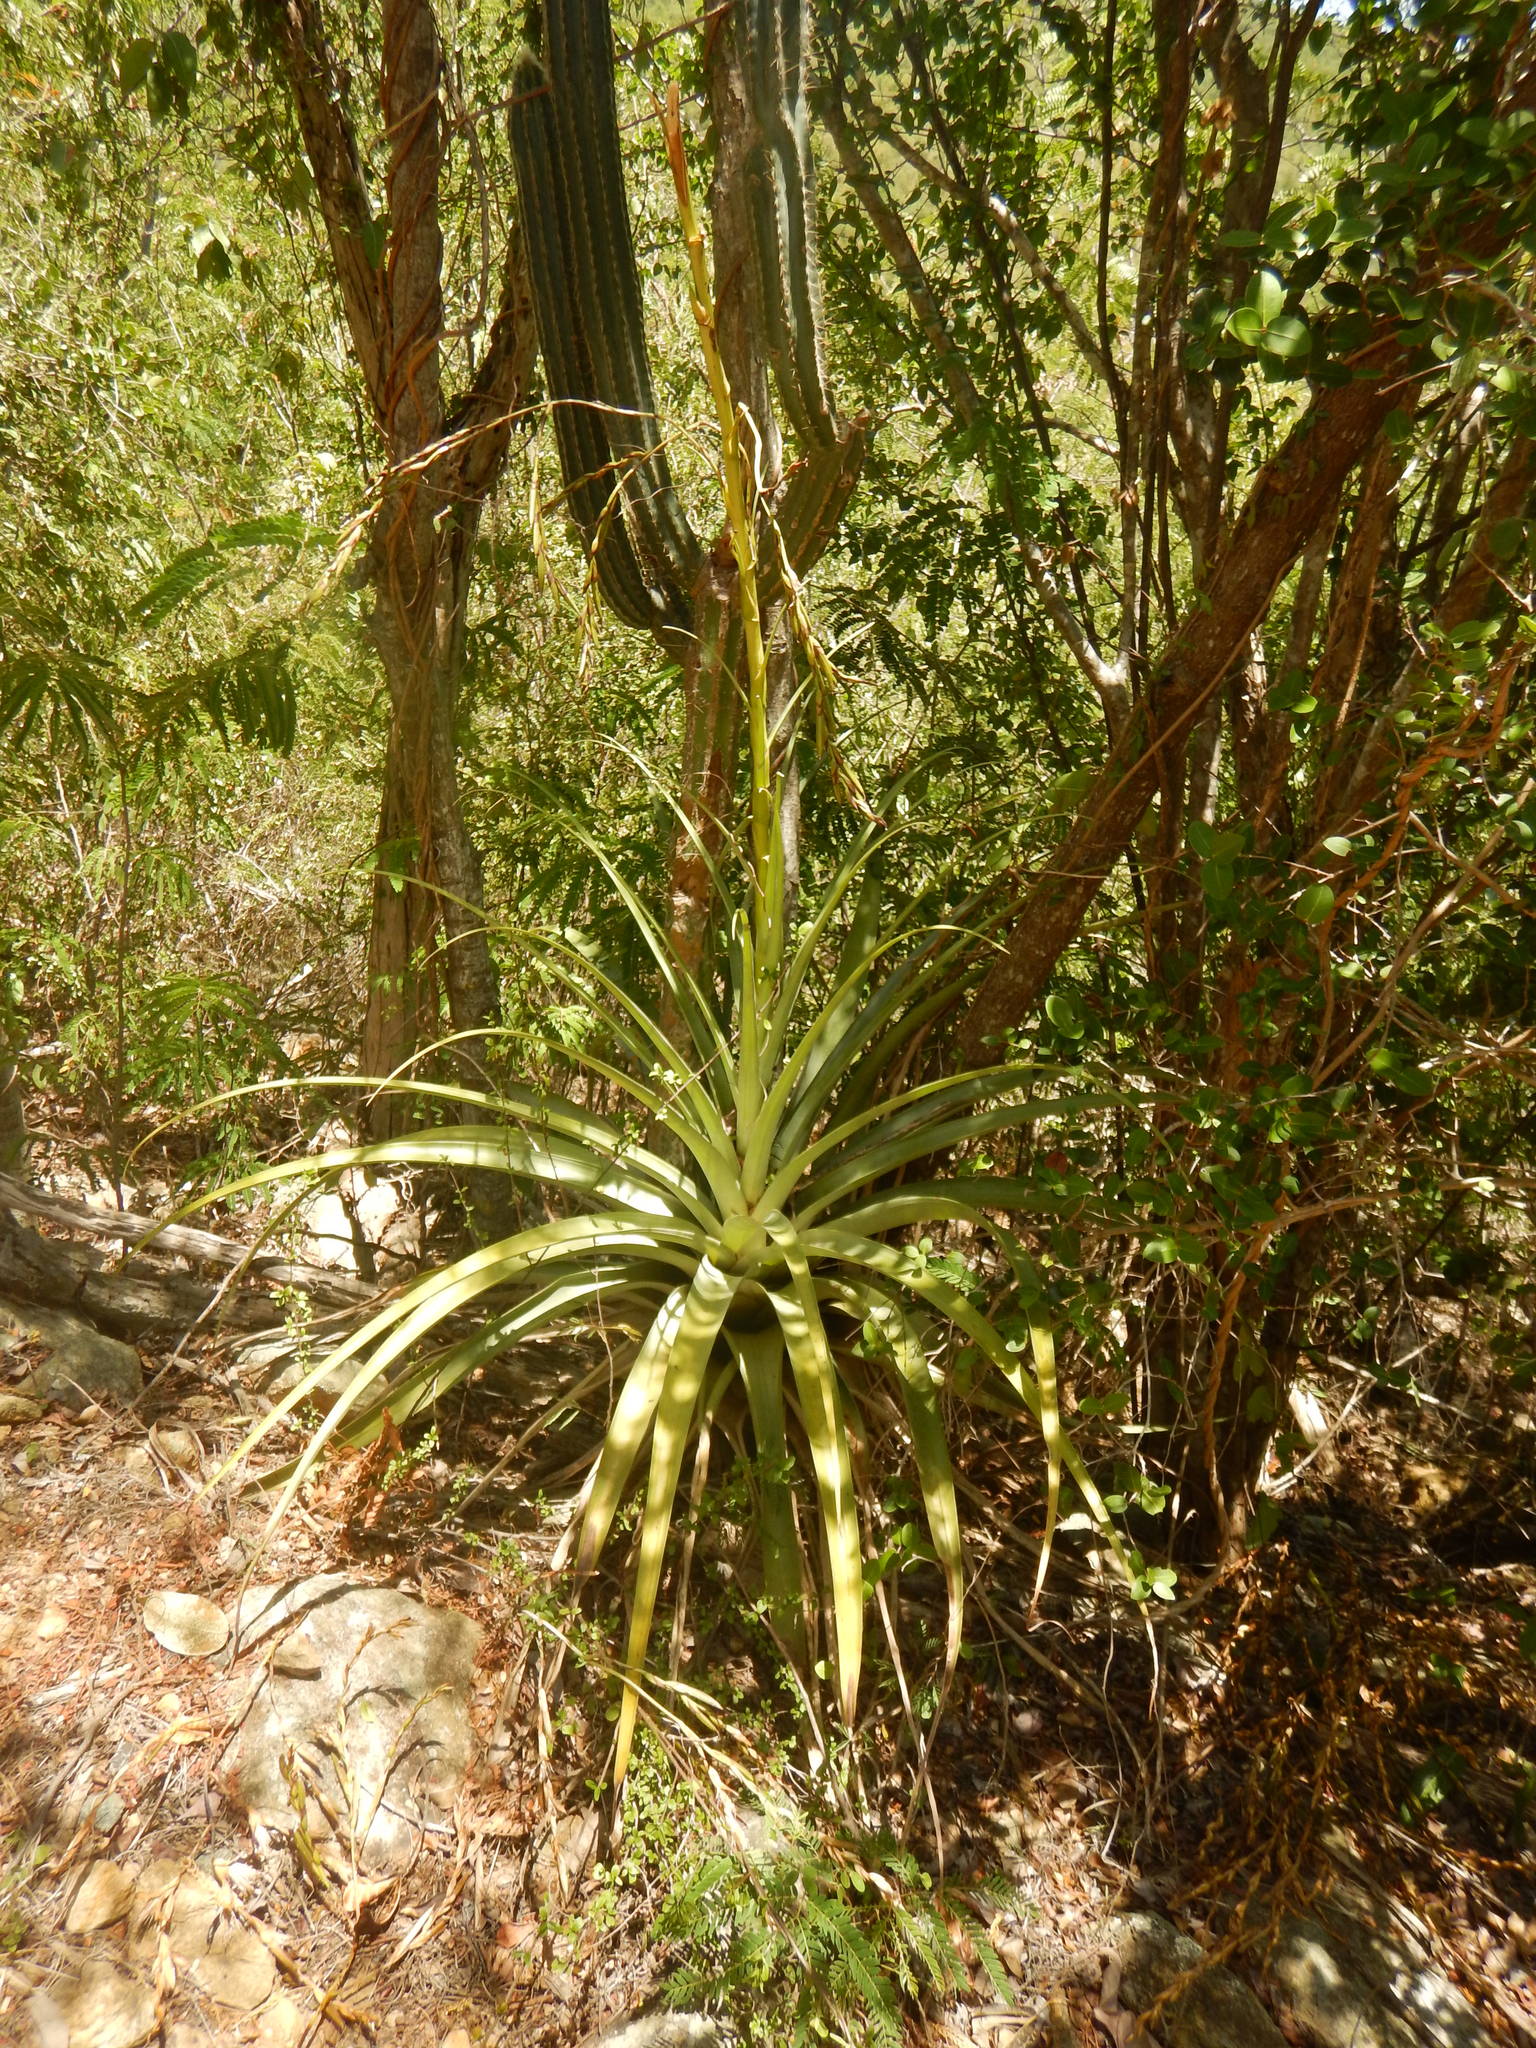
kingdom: Plantae
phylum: Tracheophyta
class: Liliopsida
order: Poales
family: Bromeliaceae
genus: Tillandsia
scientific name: Tillandsia utriculata
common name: Wild pine
